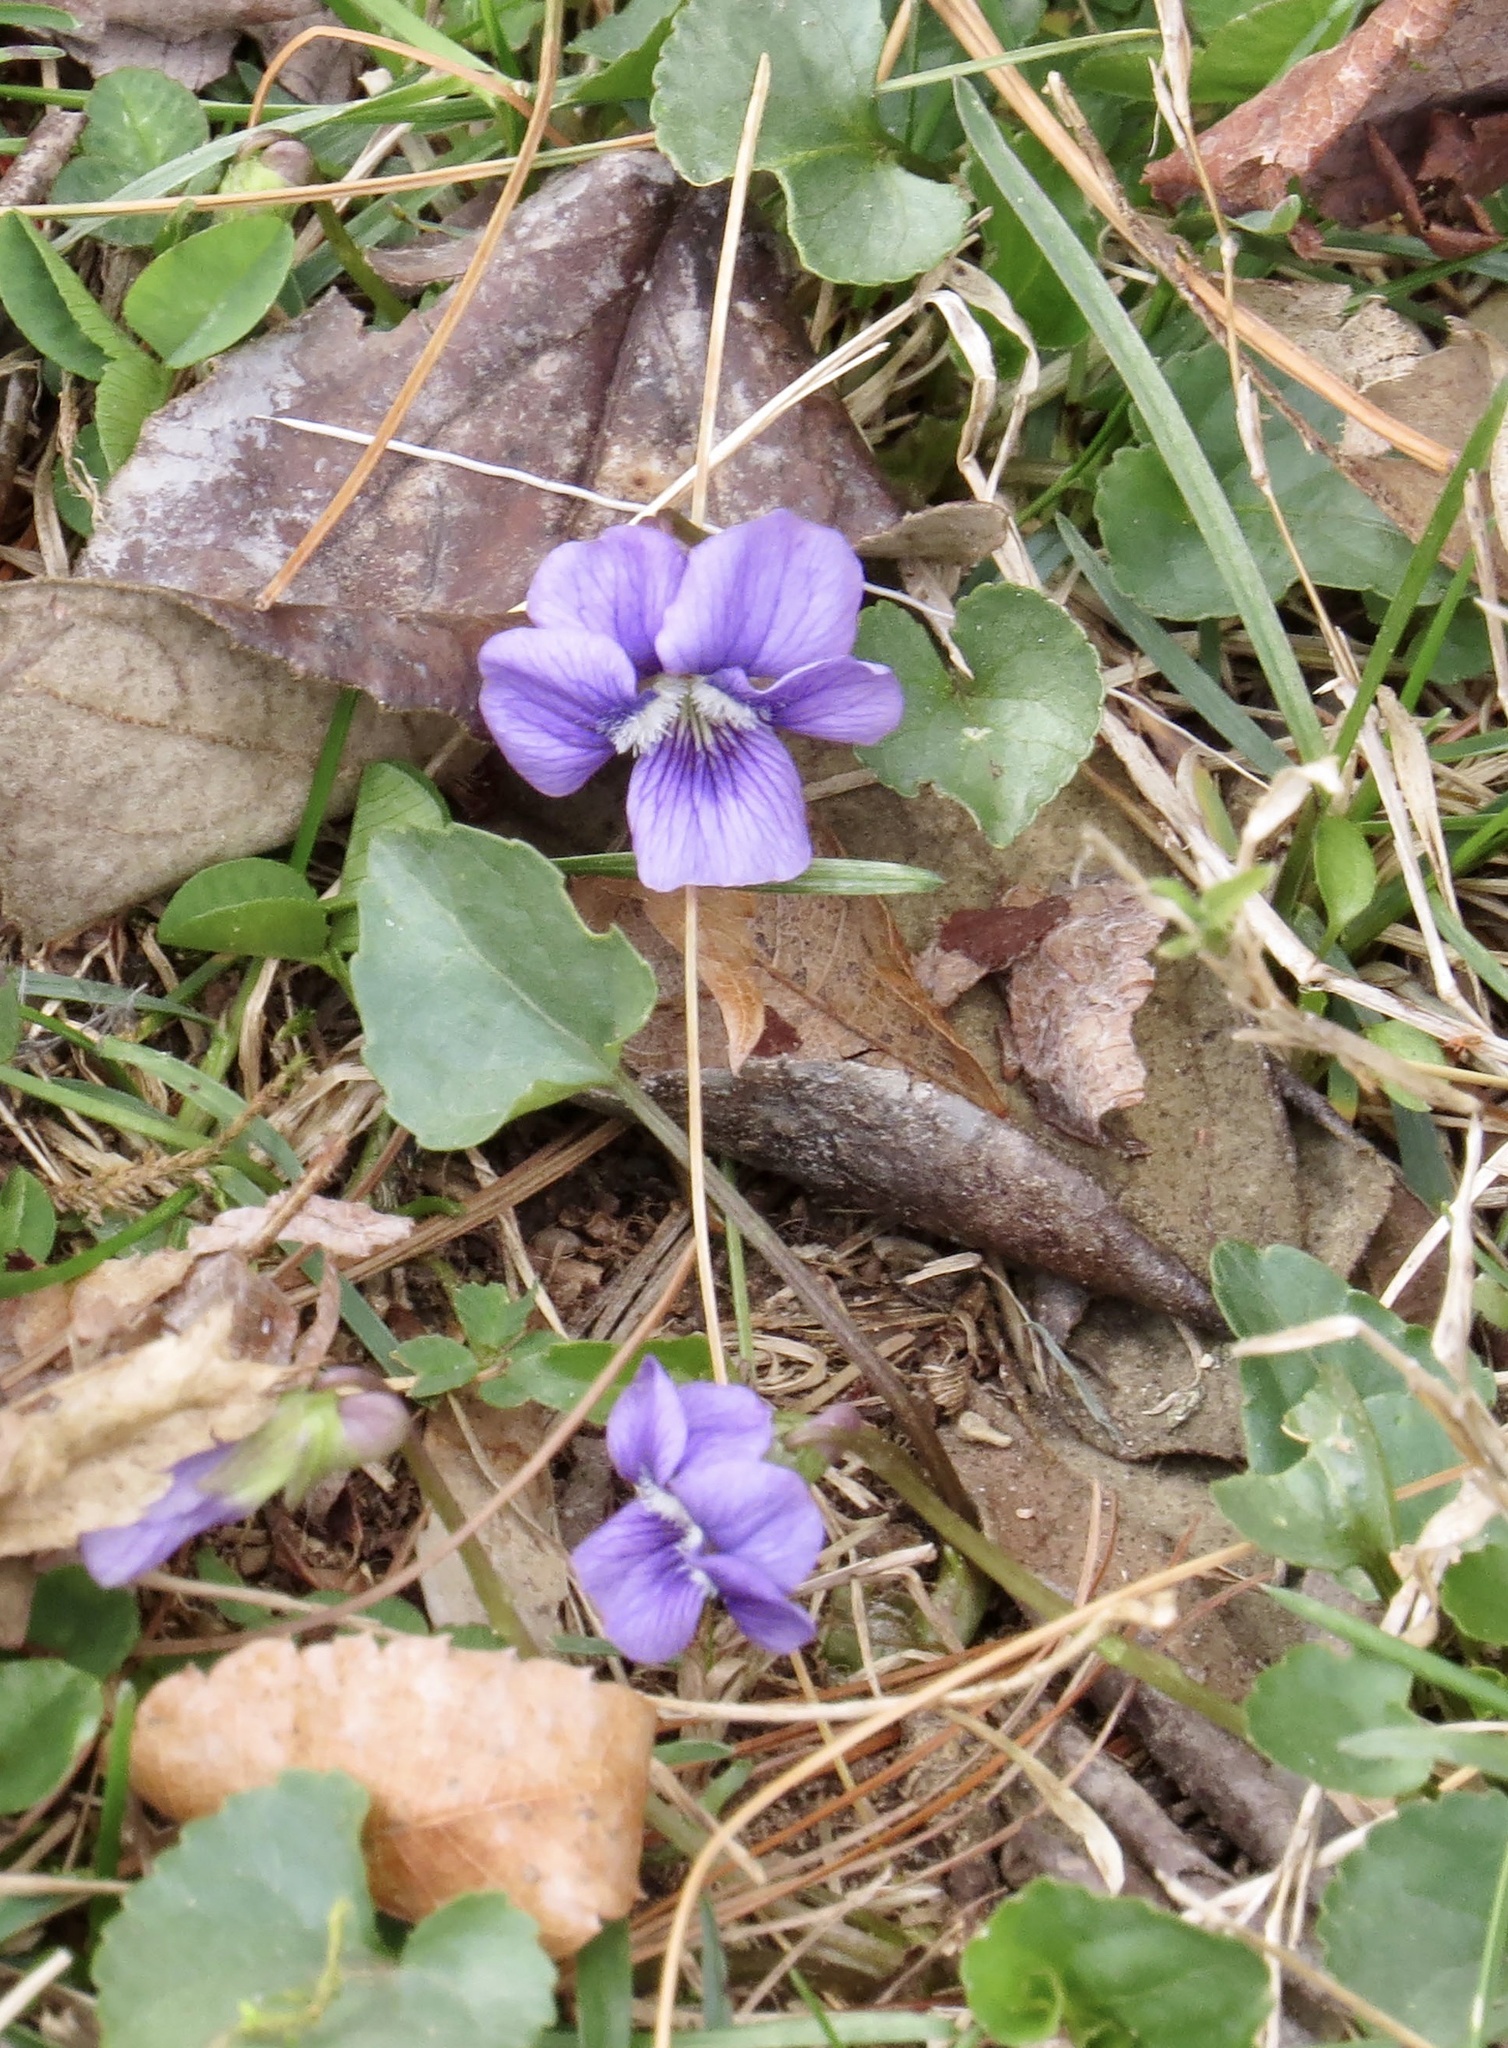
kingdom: Plantae
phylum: Tracheophyta
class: Magnoliopsida
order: Malpighiales
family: Violaceae
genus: Viola
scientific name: Viola sororia
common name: Dooryard violet
